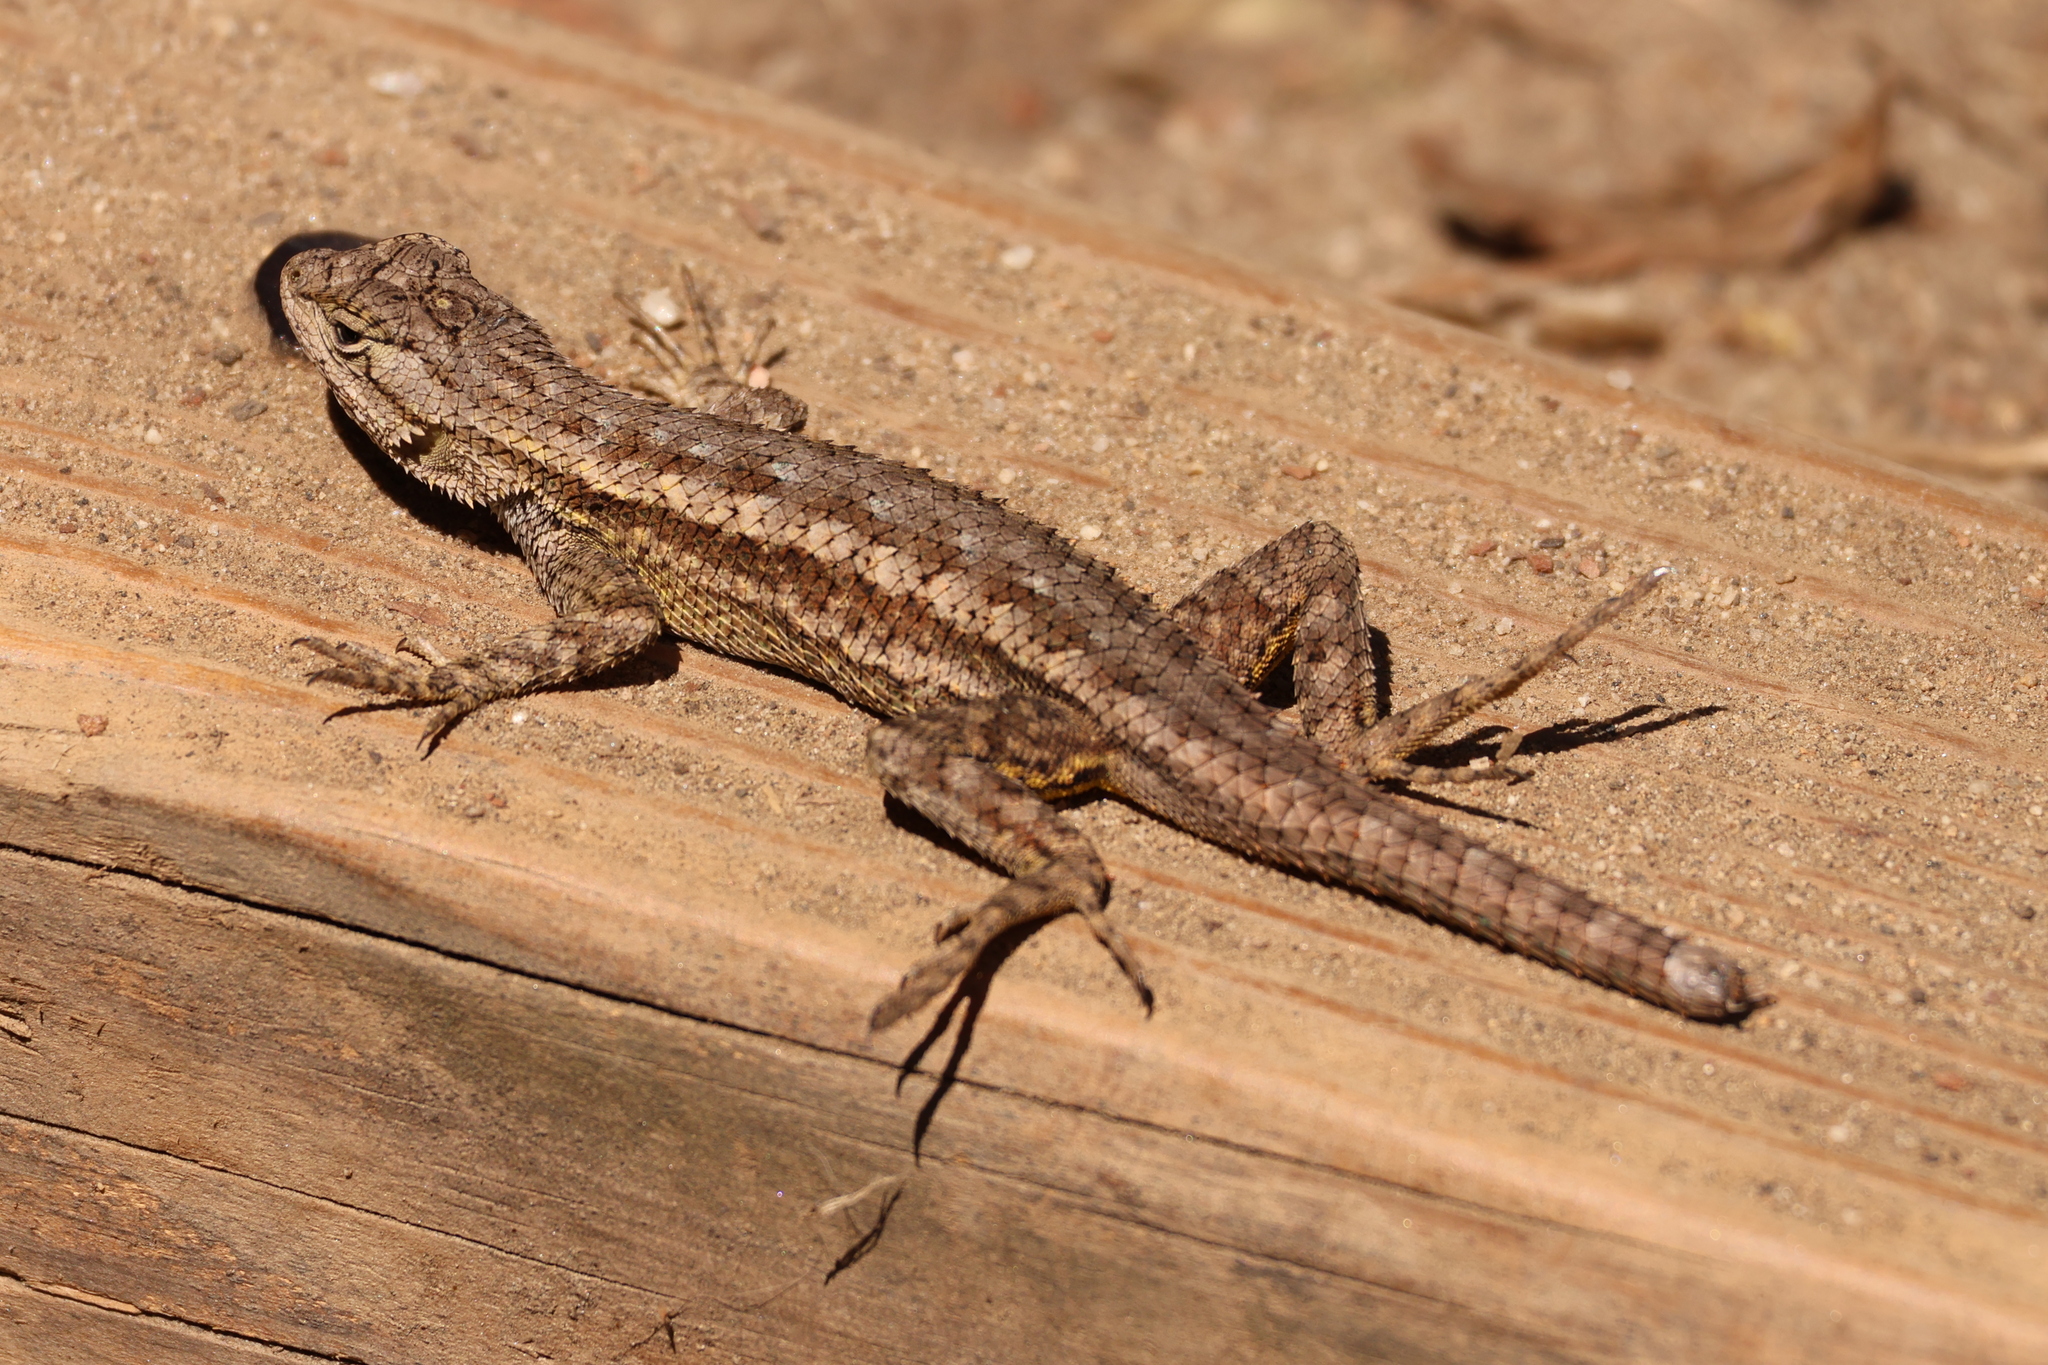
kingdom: Animalia
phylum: Chordata
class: Squamata
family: Phrynosomatidae
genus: Sceloporus
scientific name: Sceloporus occidentalis
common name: Western fence lizard
